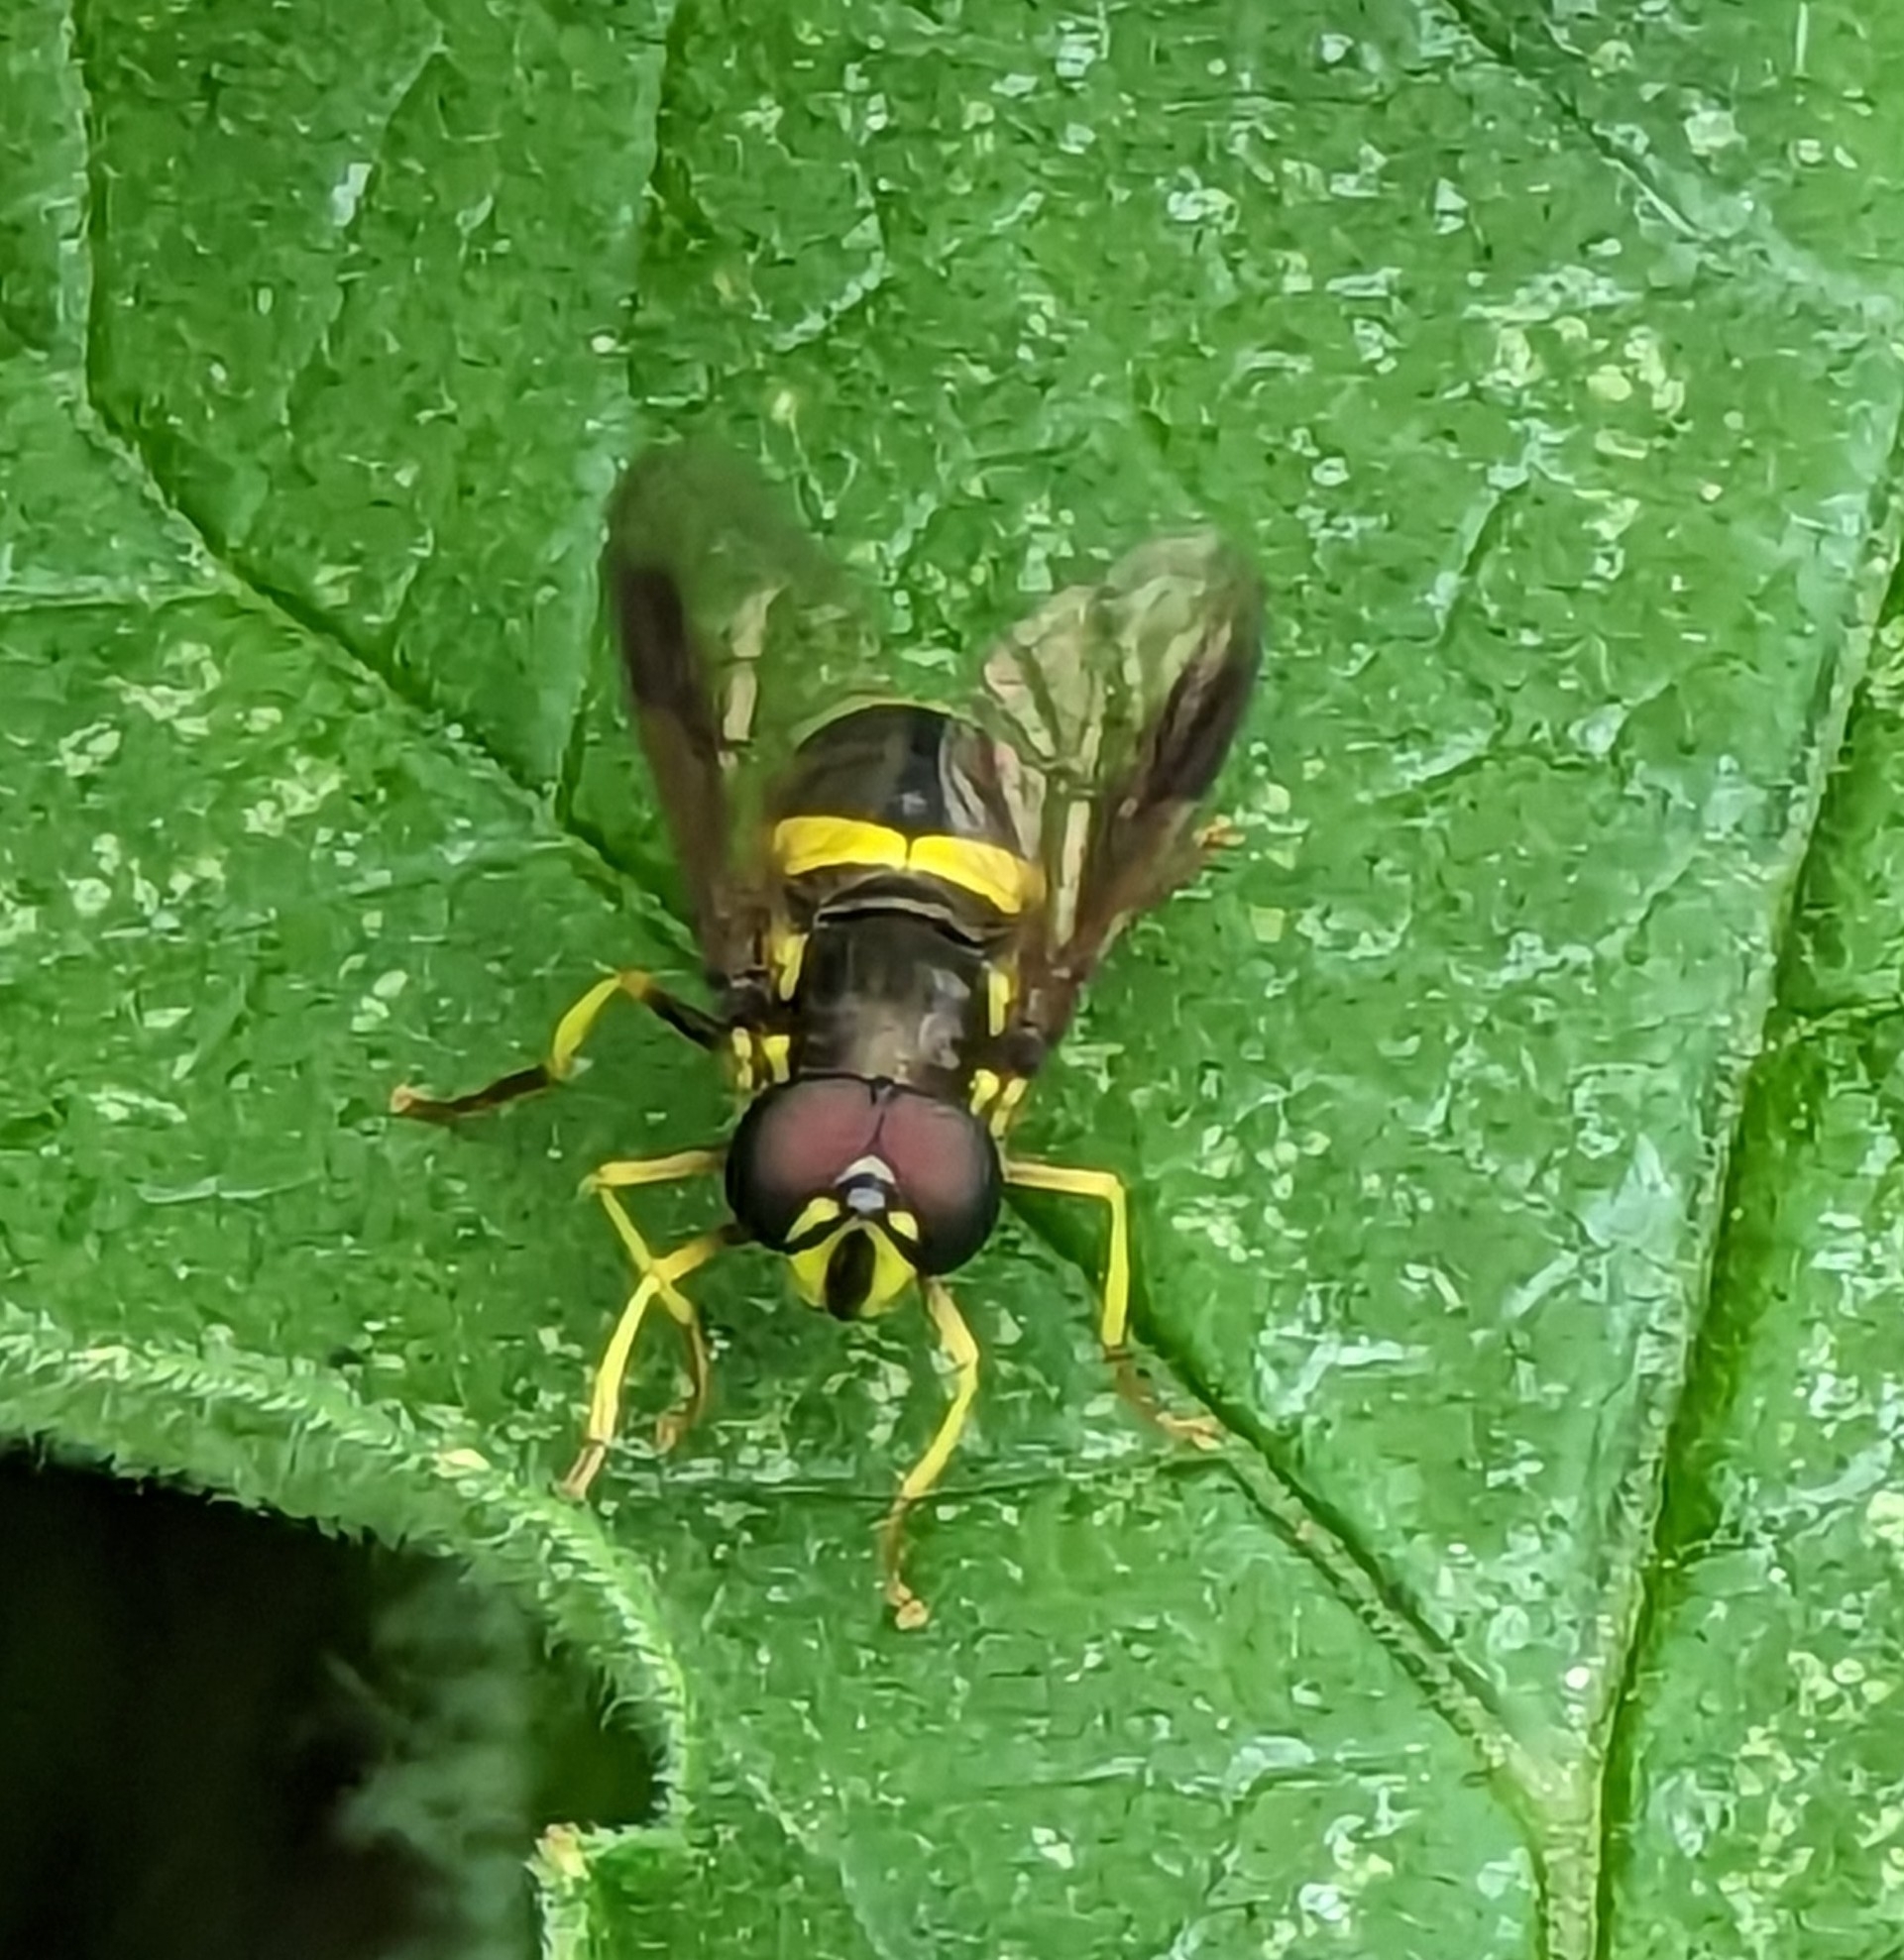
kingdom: Animalia
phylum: Arthropoda
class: Insecta
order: Diptera
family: Syrphidae
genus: Chrysotoxum
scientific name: Chrysotoxum bicincta
